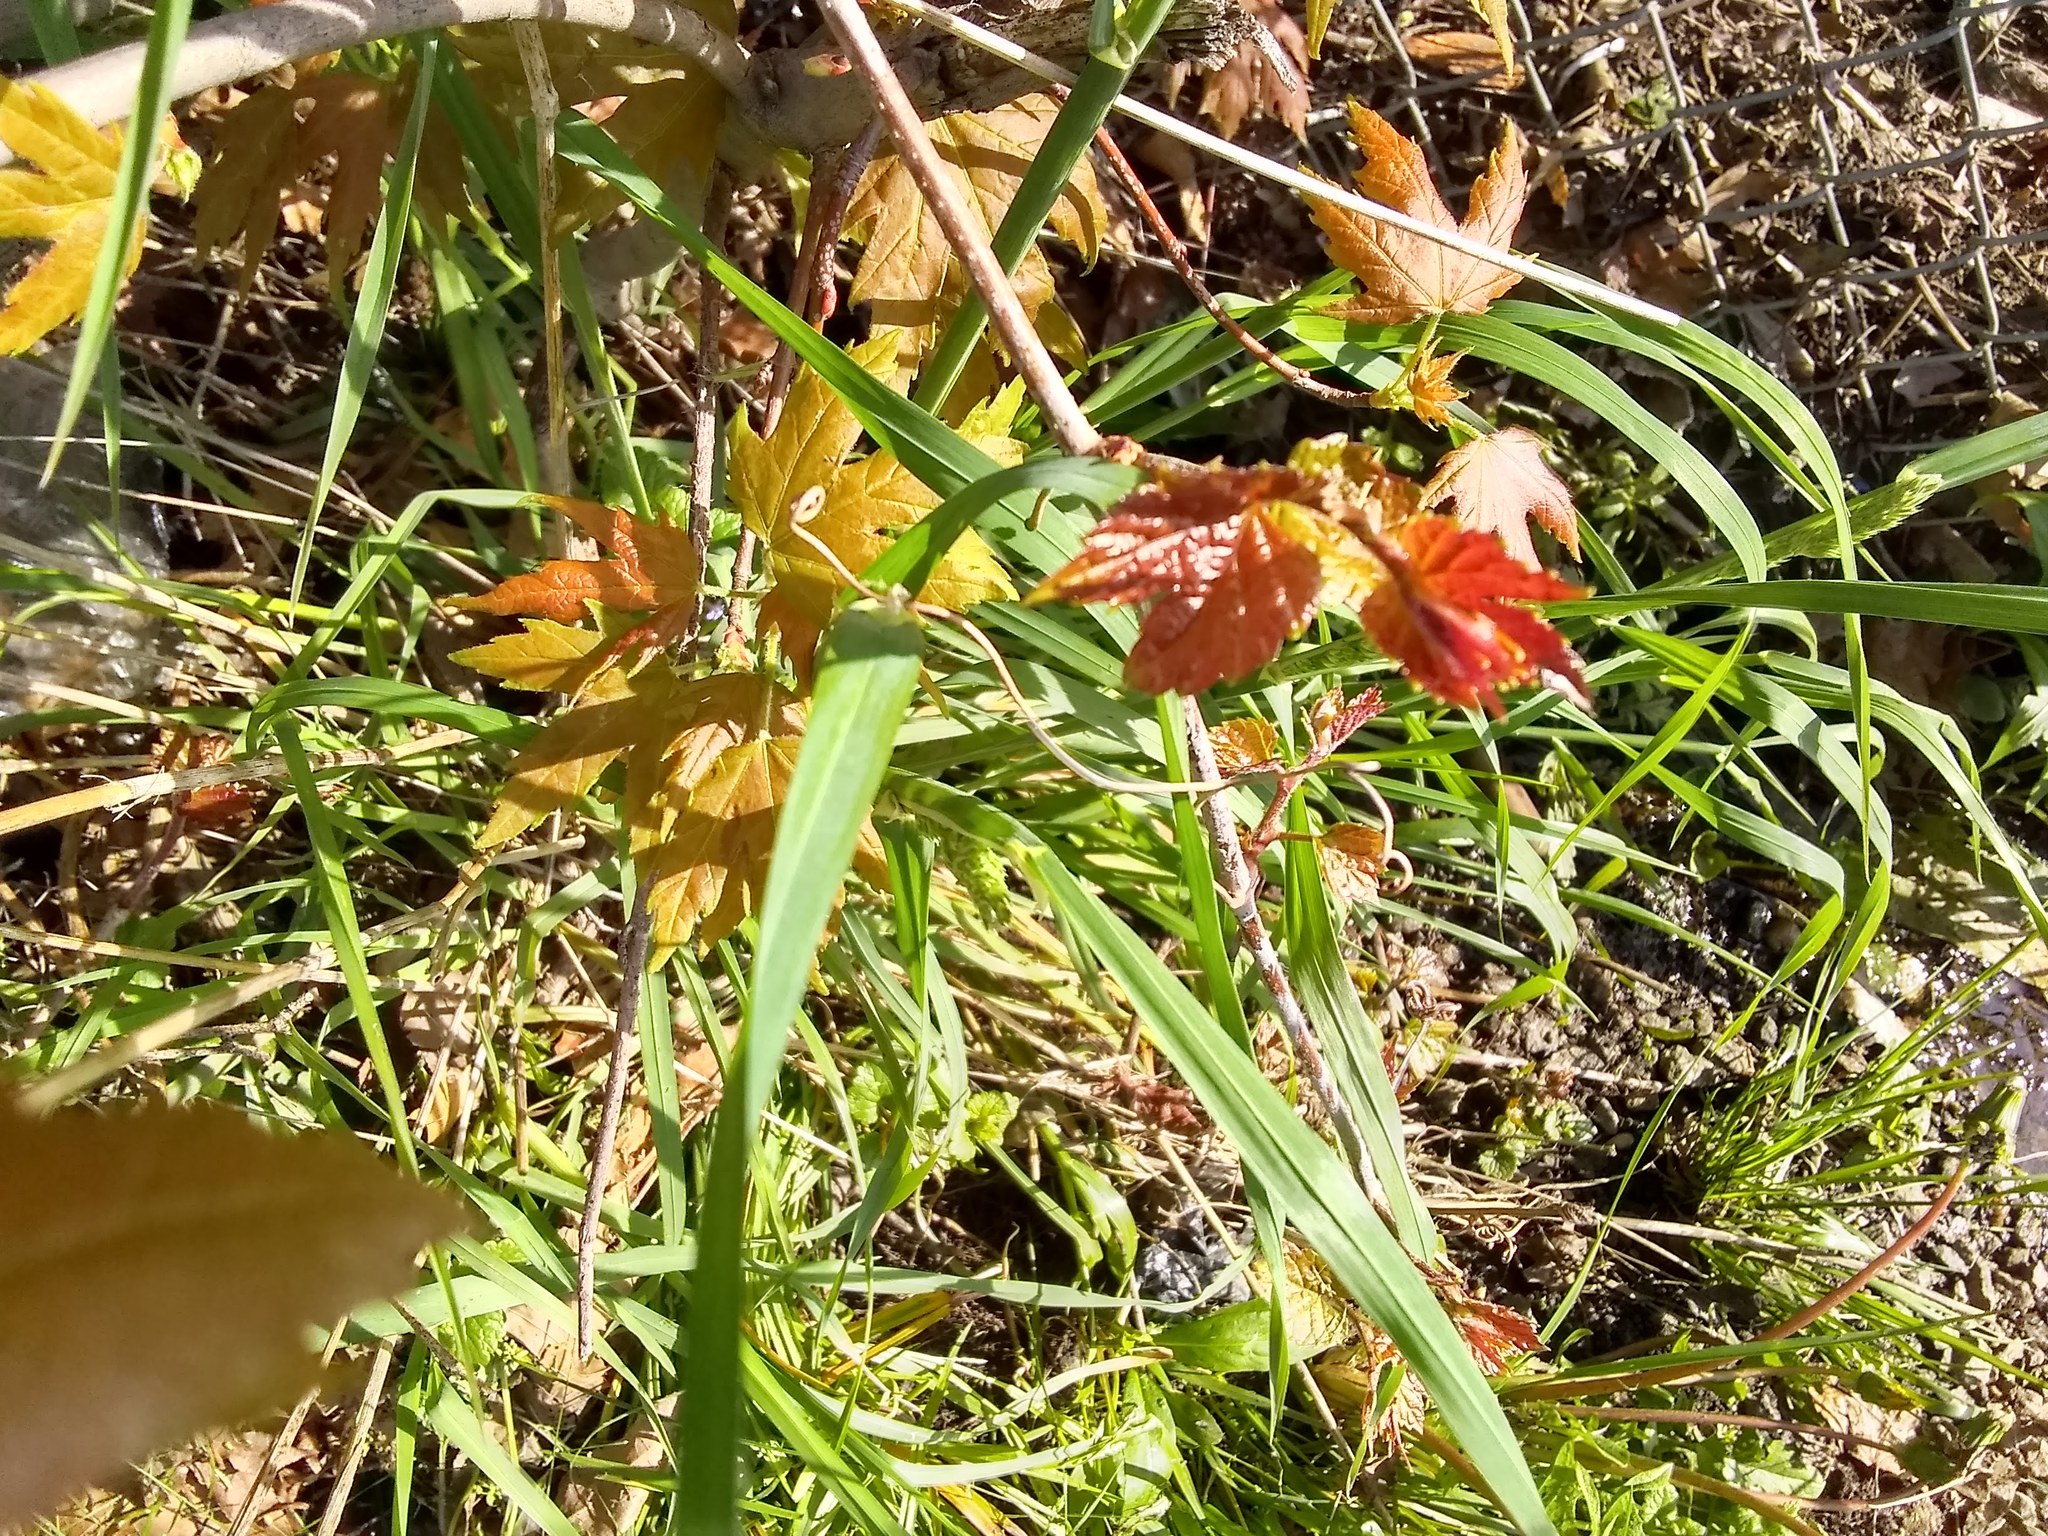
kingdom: Plantae
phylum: Tracheophyta
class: Magnoliopsida
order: Vitales
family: Vitaceae
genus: Ampelopsis
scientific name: Ampelopsis glandulosa
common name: Amur peppervine
